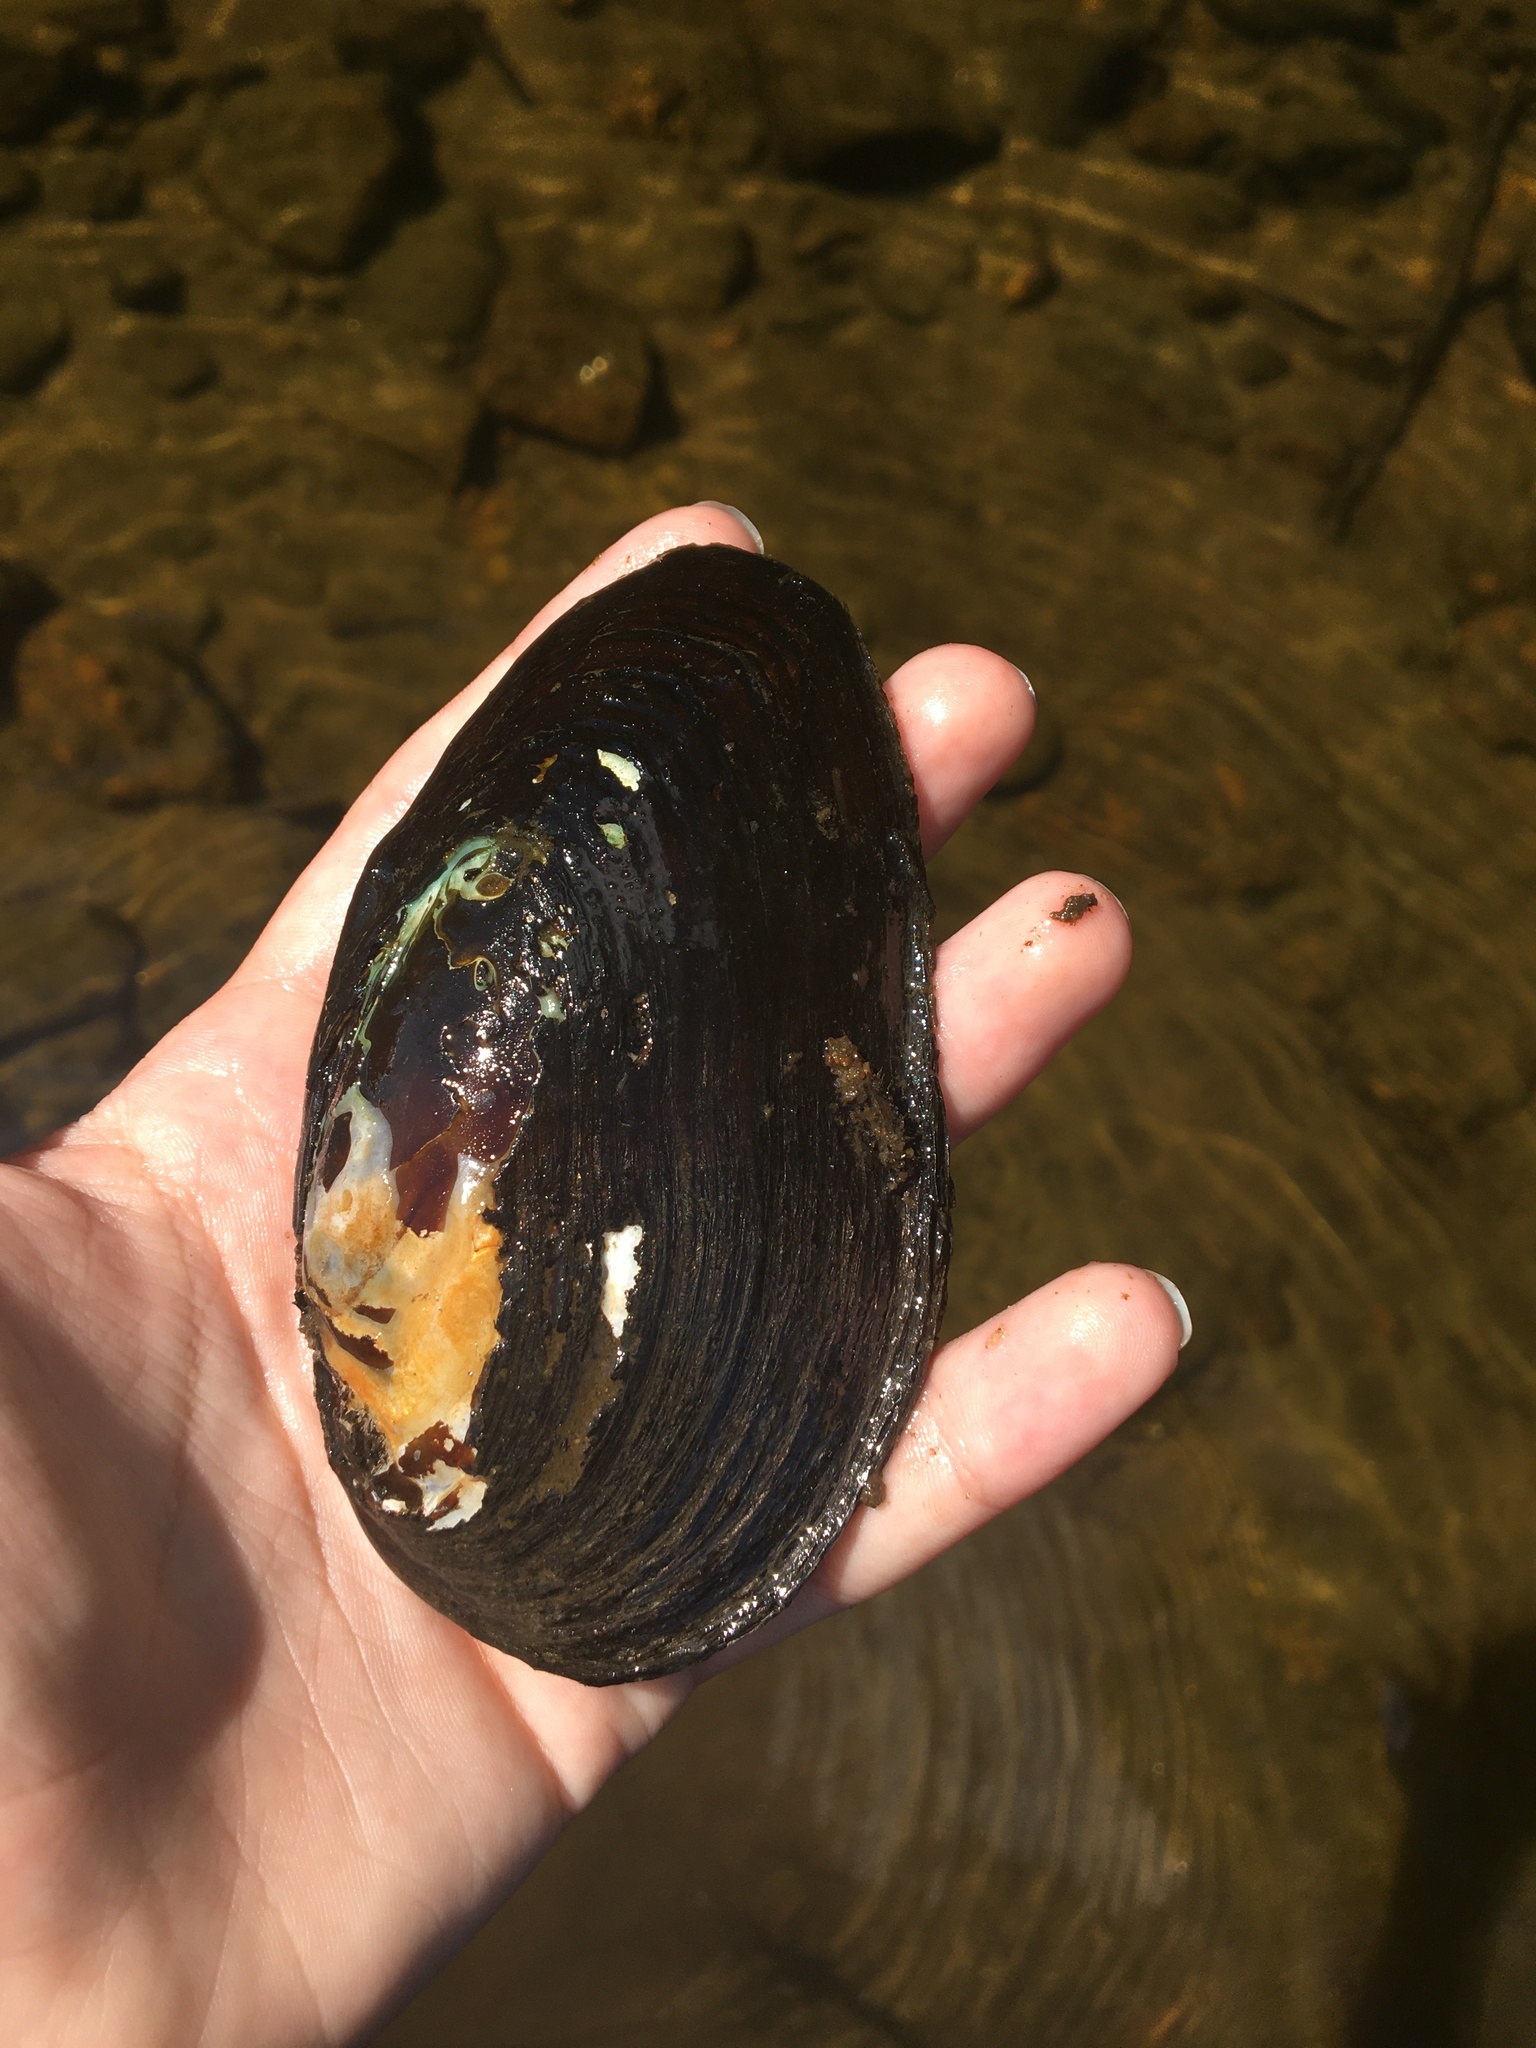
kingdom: Animalia
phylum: Mollusca
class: Bivalvia
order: Unionida
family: Unionidae
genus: Elliptio
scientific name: Elliptio complanata
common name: Eastern elliptio
